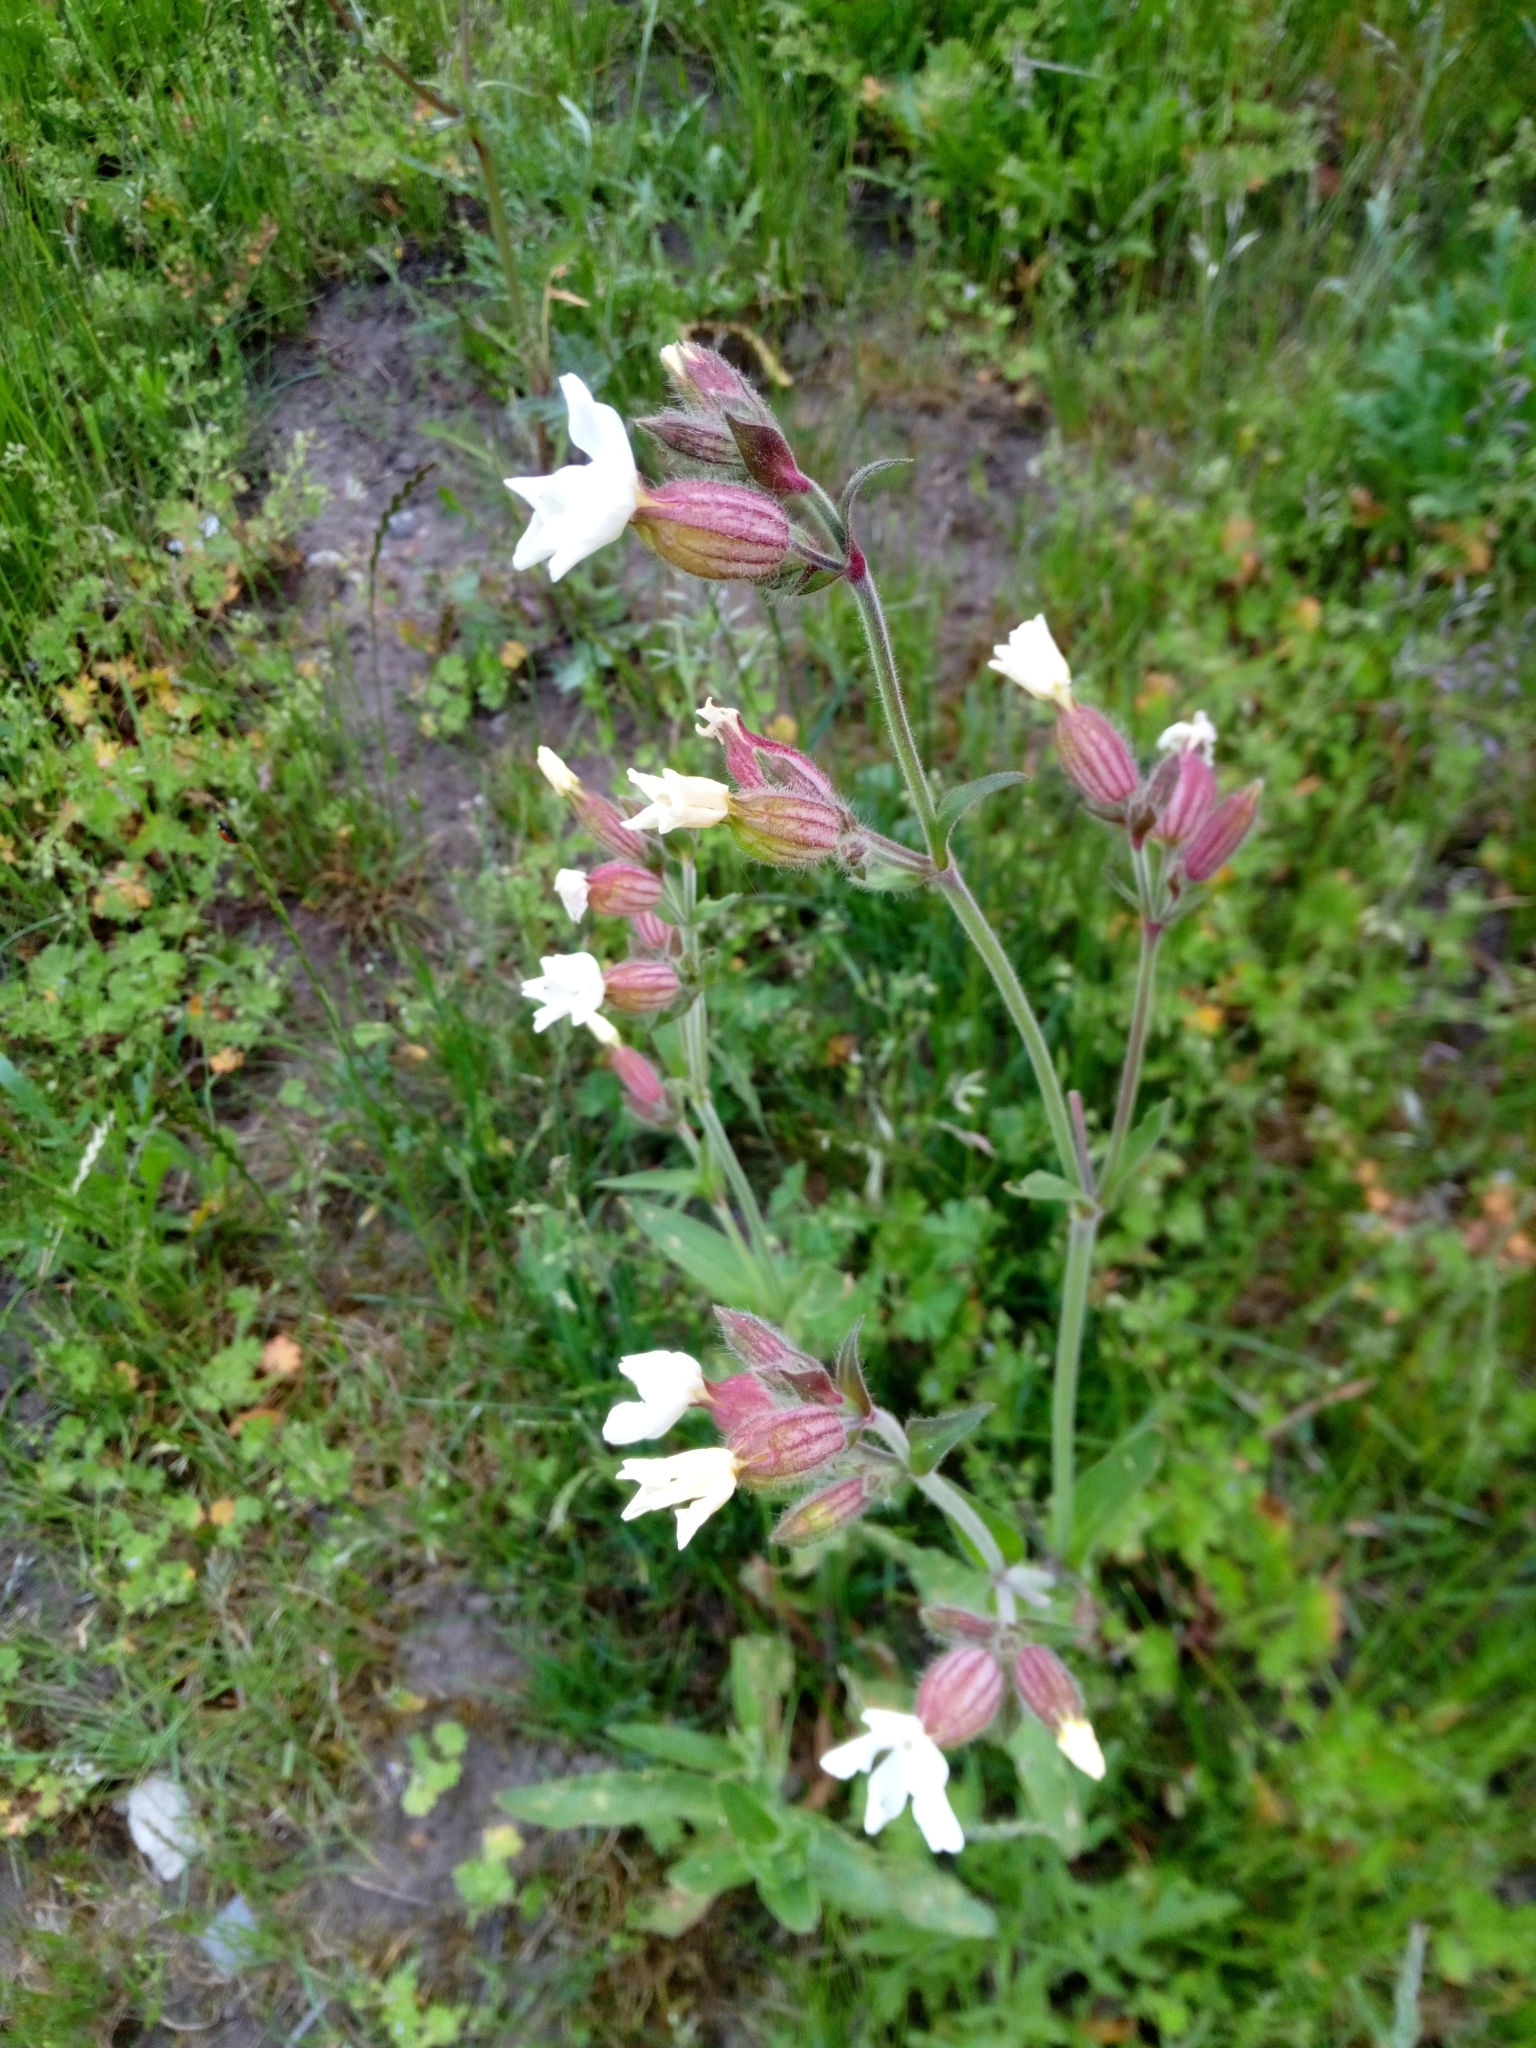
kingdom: Plantae
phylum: Tracheophyta
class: Magnoliopsida
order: Caryophyllales
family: Caryophyllaceae
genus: Silene
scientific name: Silene latifolia
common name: White campion
